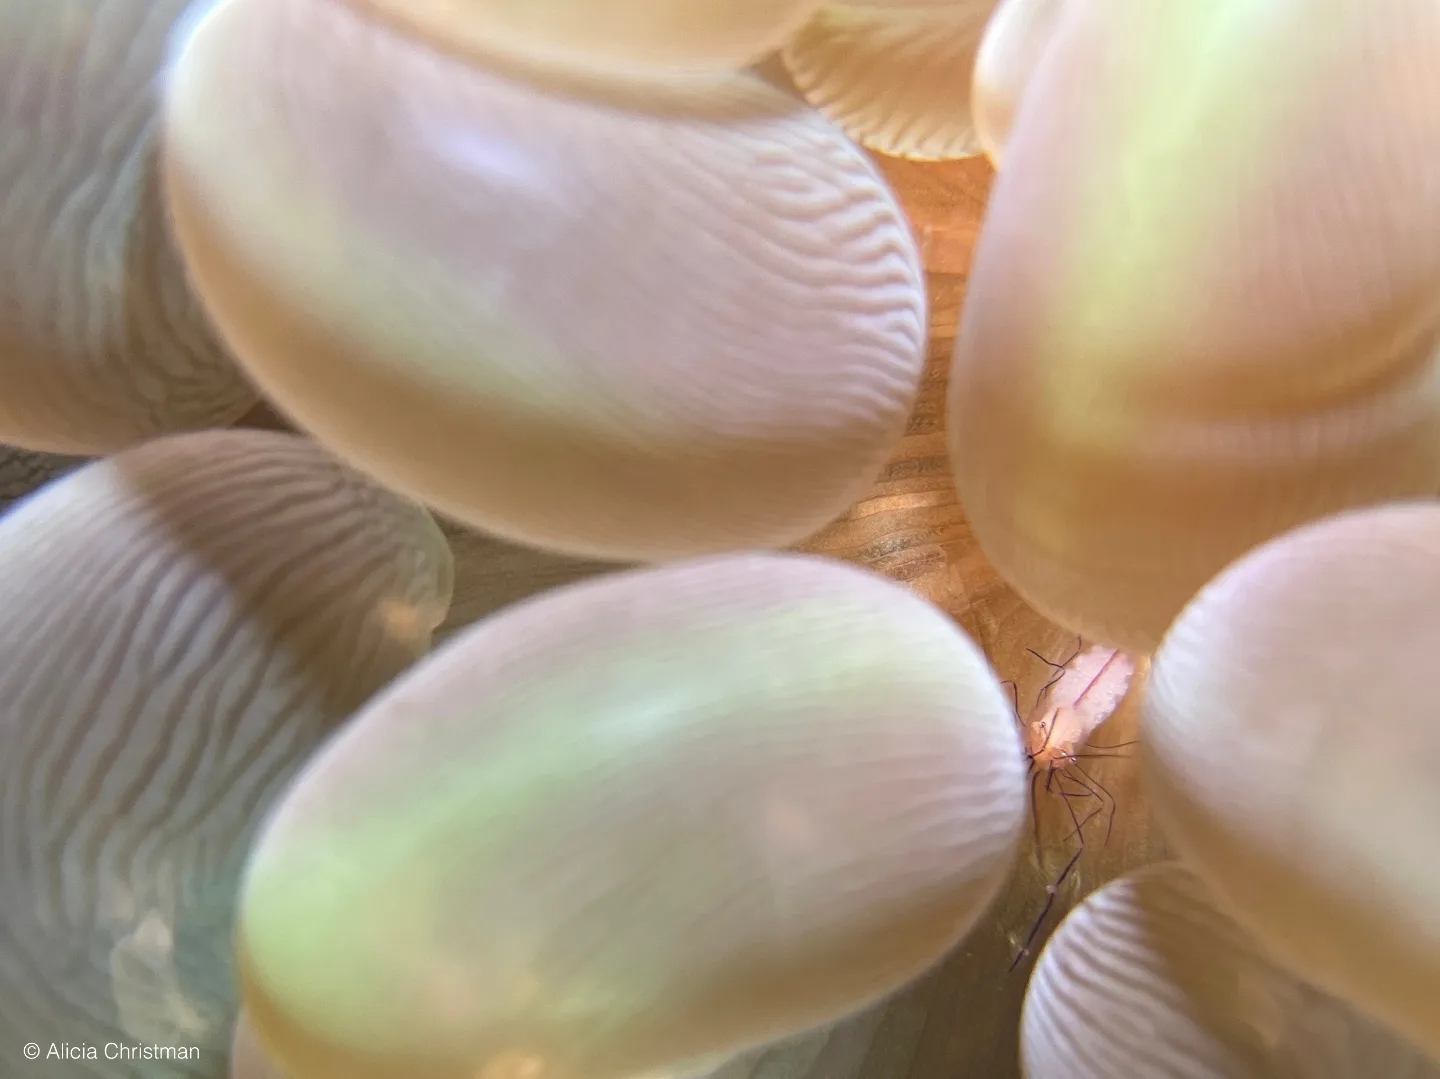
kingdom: Animalia
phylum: Cnidaria
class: Anthozoa
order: Scleractinia
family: Plerogyridae
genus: Plerogyra
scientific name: Plerogyra sinuosa
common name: Bubble coral
